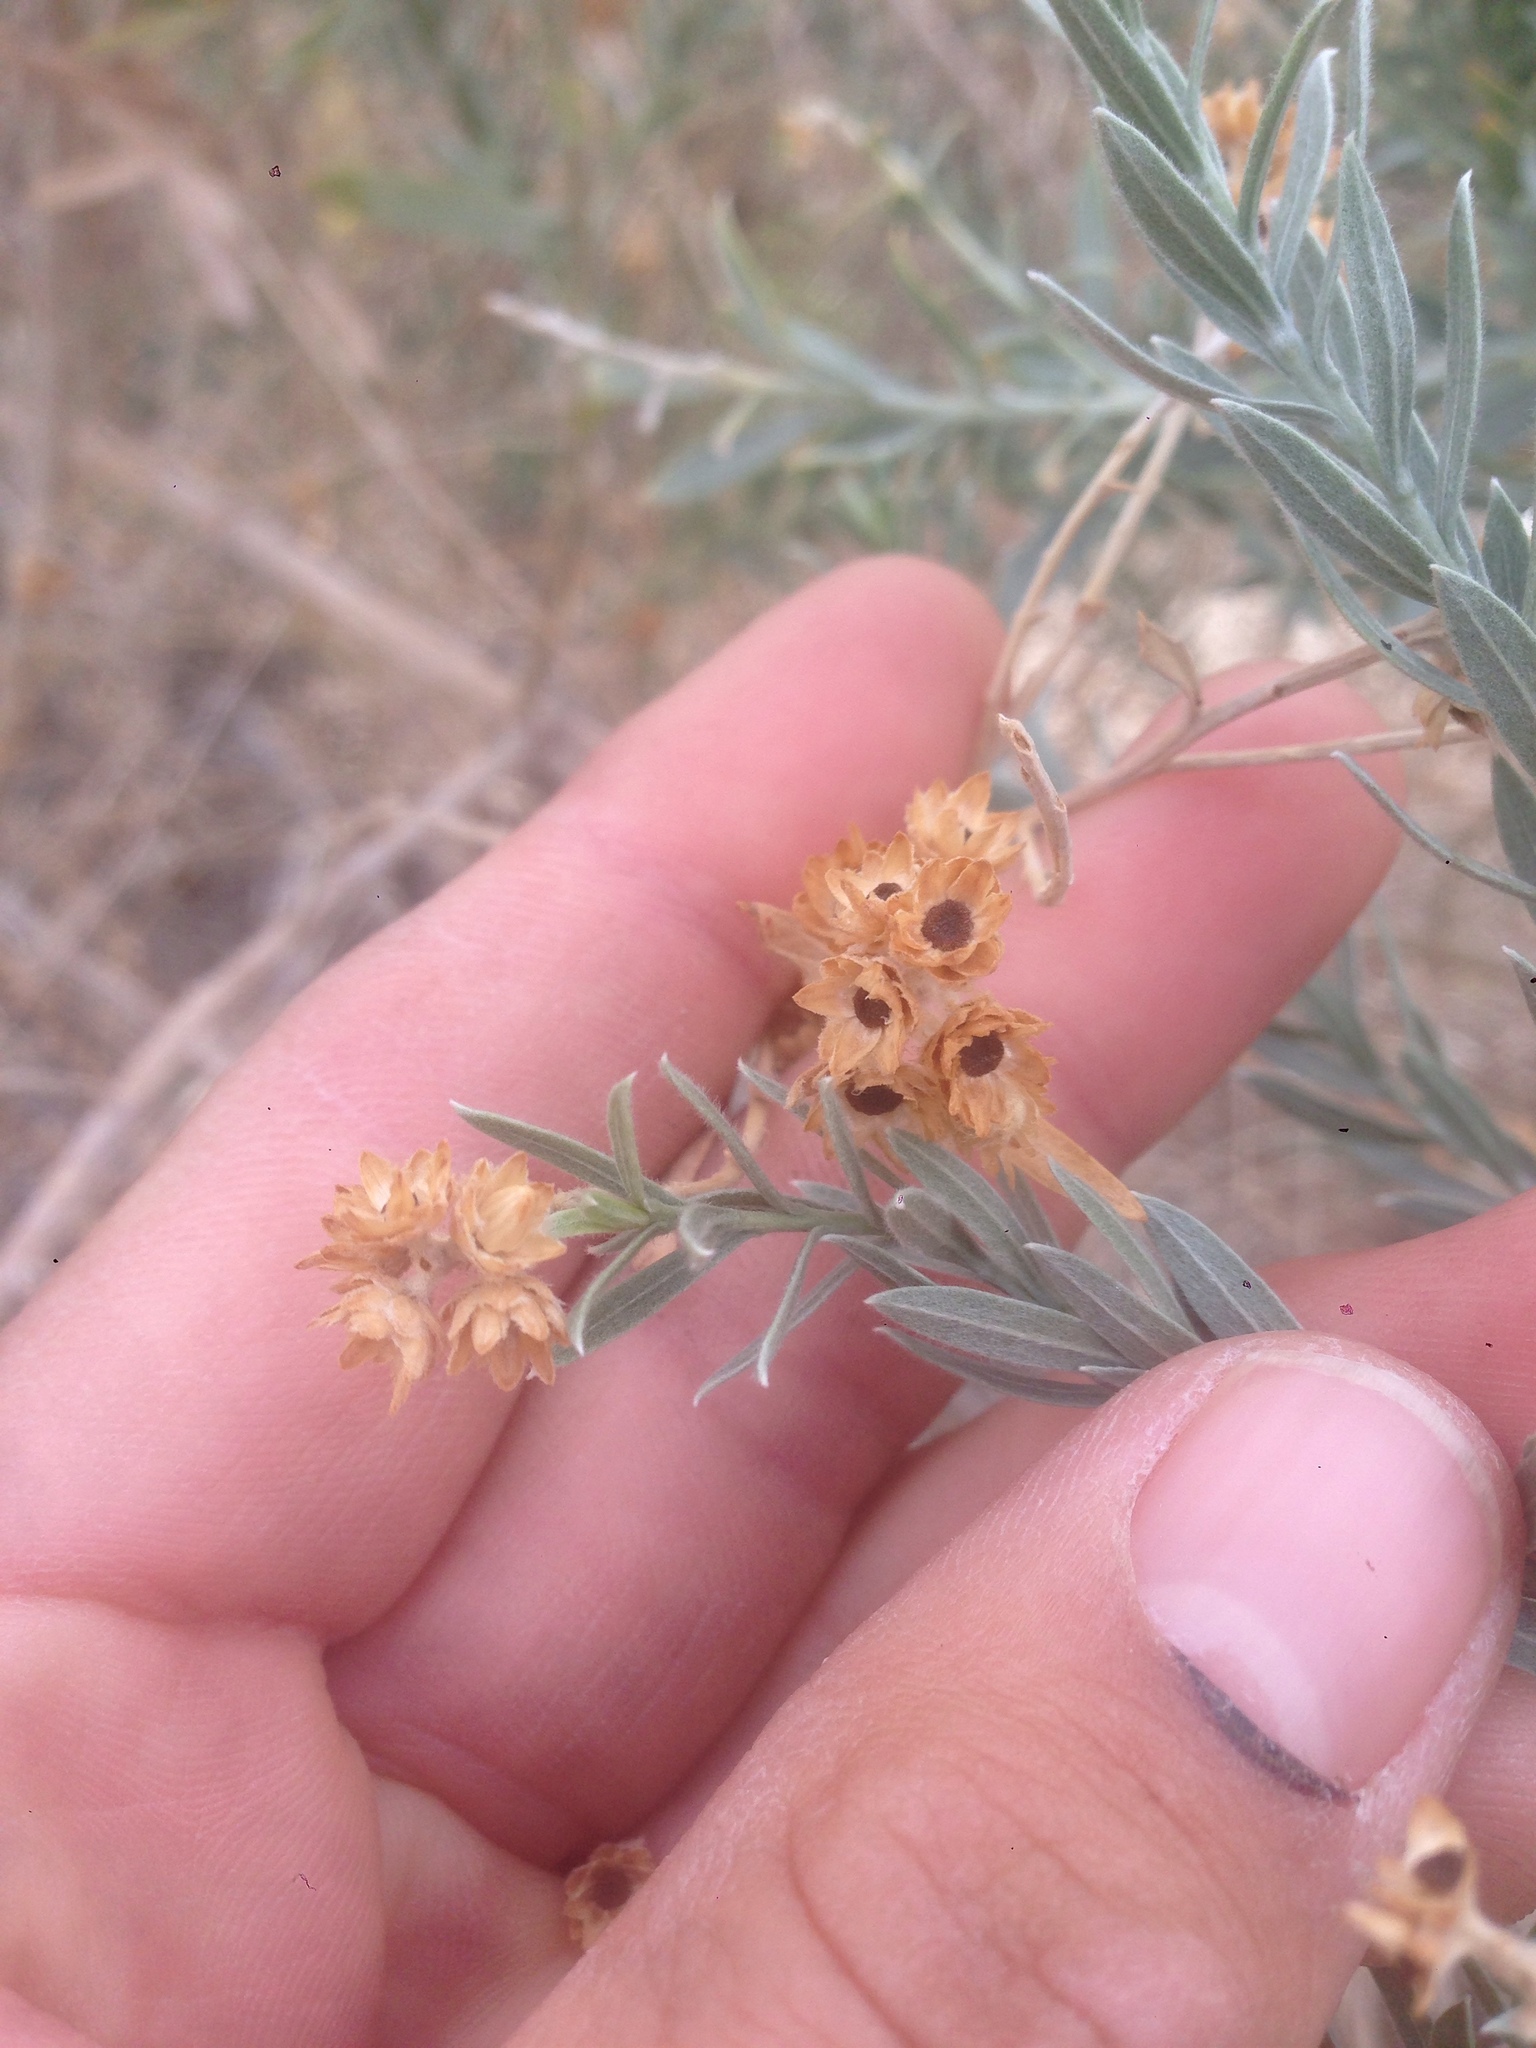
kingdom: Plantae
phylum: Tracheophyta
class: Magnoliopsida
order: Asterales
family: Asteraceae
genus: Pluchea
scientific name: Pluchea sericea
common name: Arrow-weed
